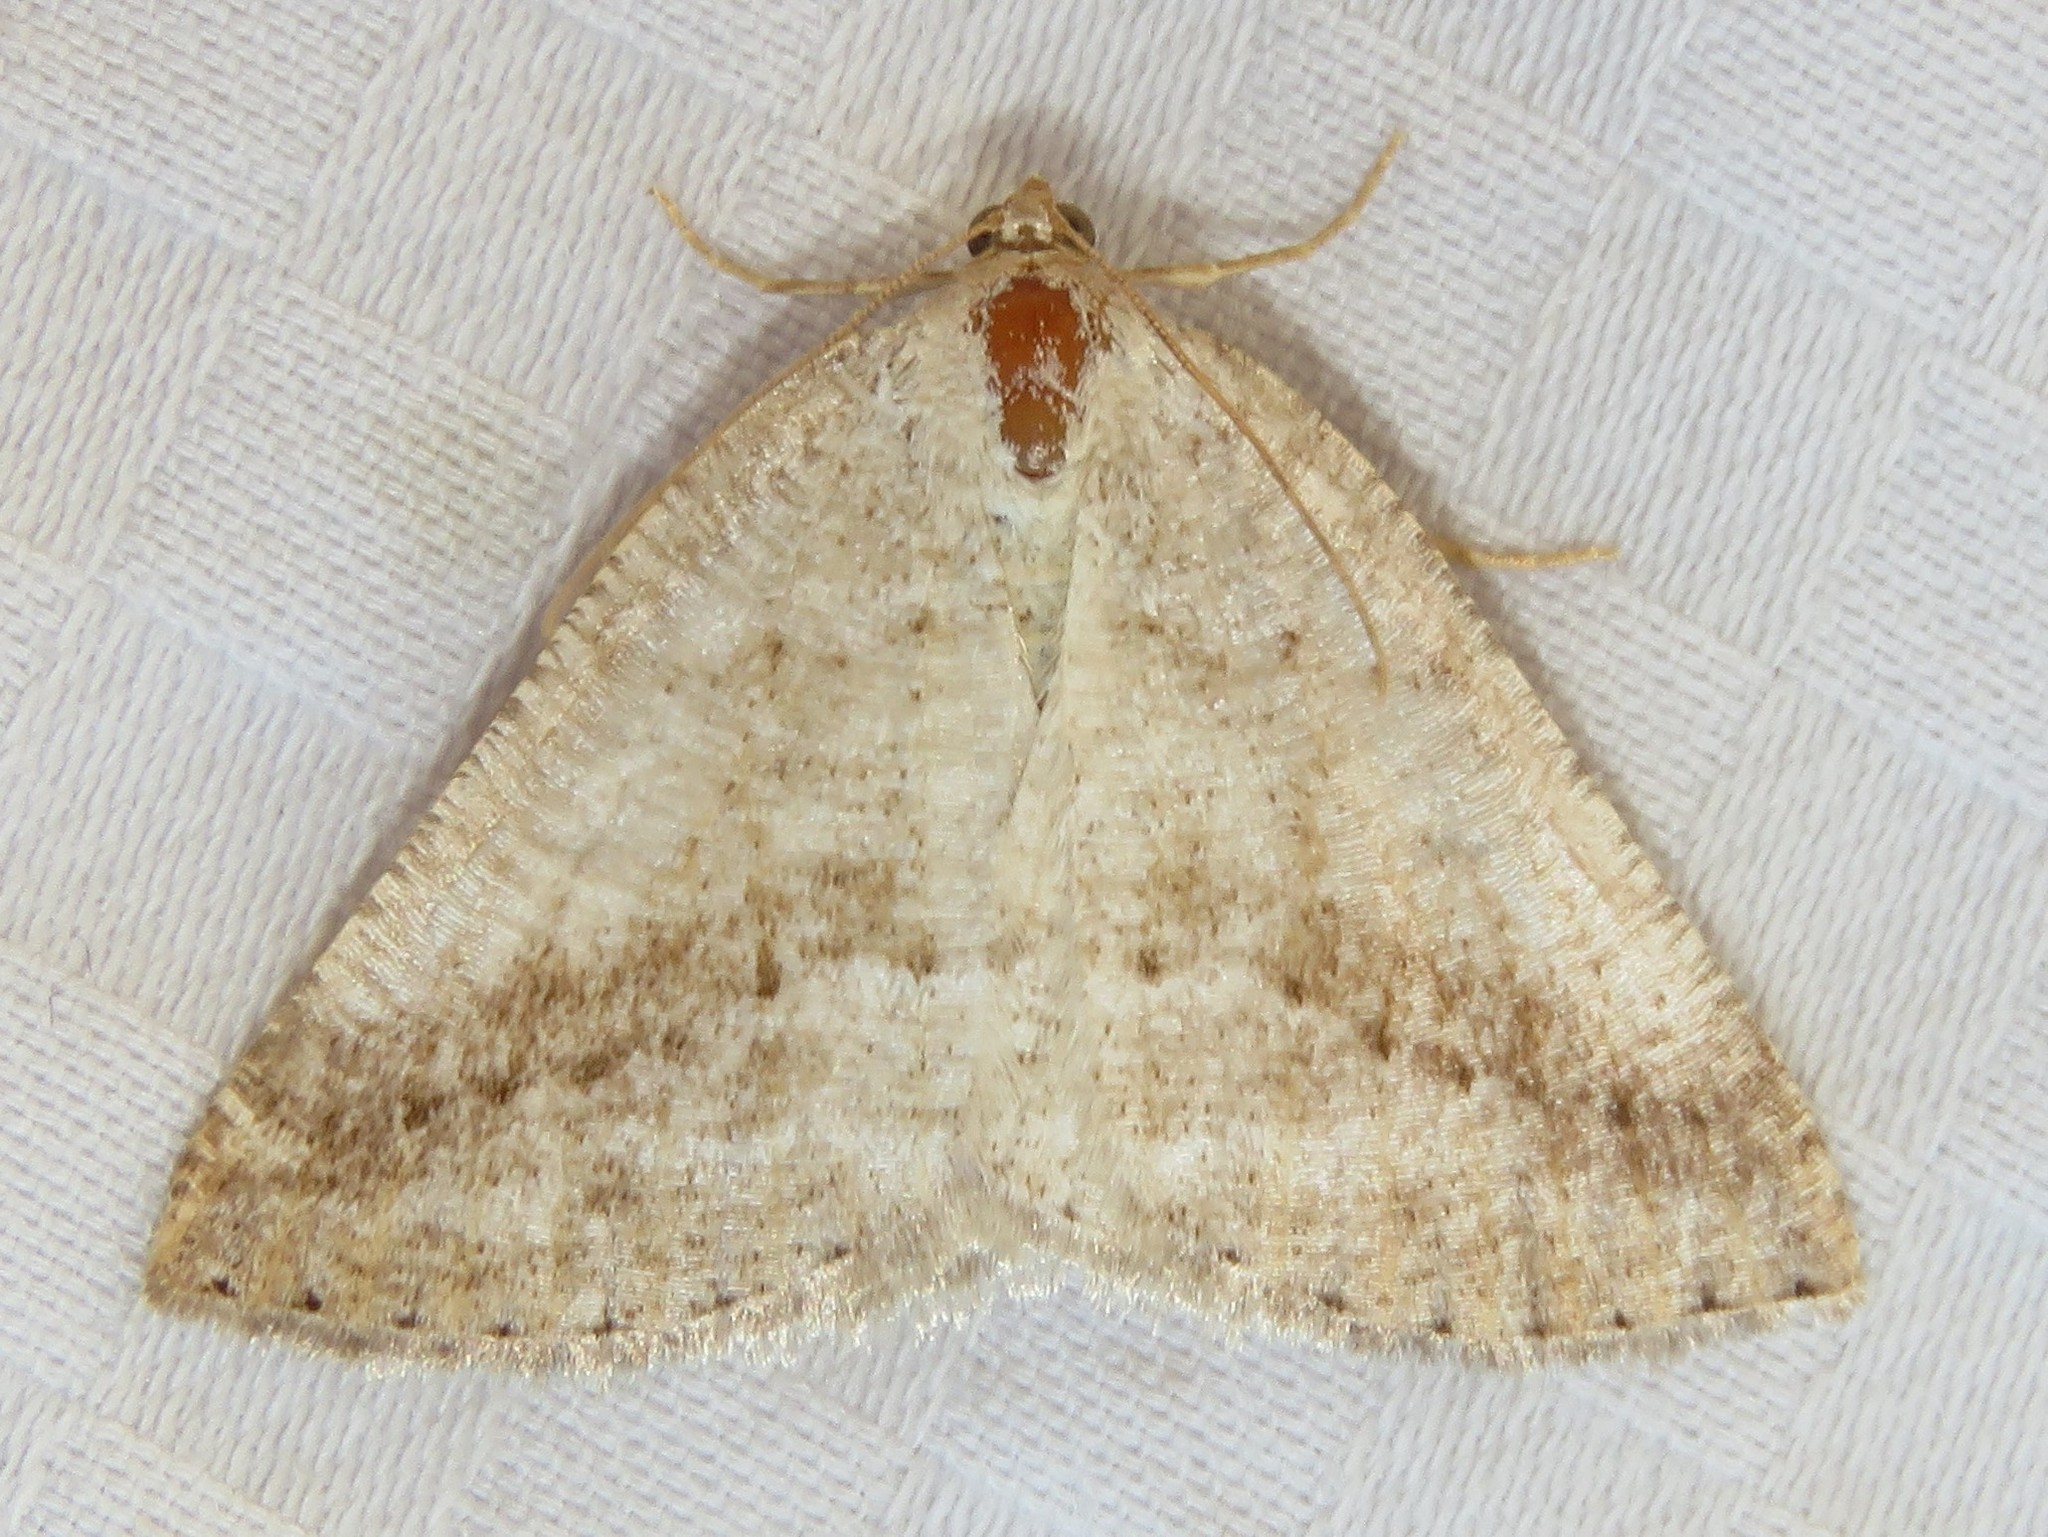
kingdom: Animalia
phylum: Arthropoda
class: Insecta
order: Lepidoptera
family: Geometridae
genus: Tacparia
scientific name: Tacparia detersata
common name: Pale alder moth
